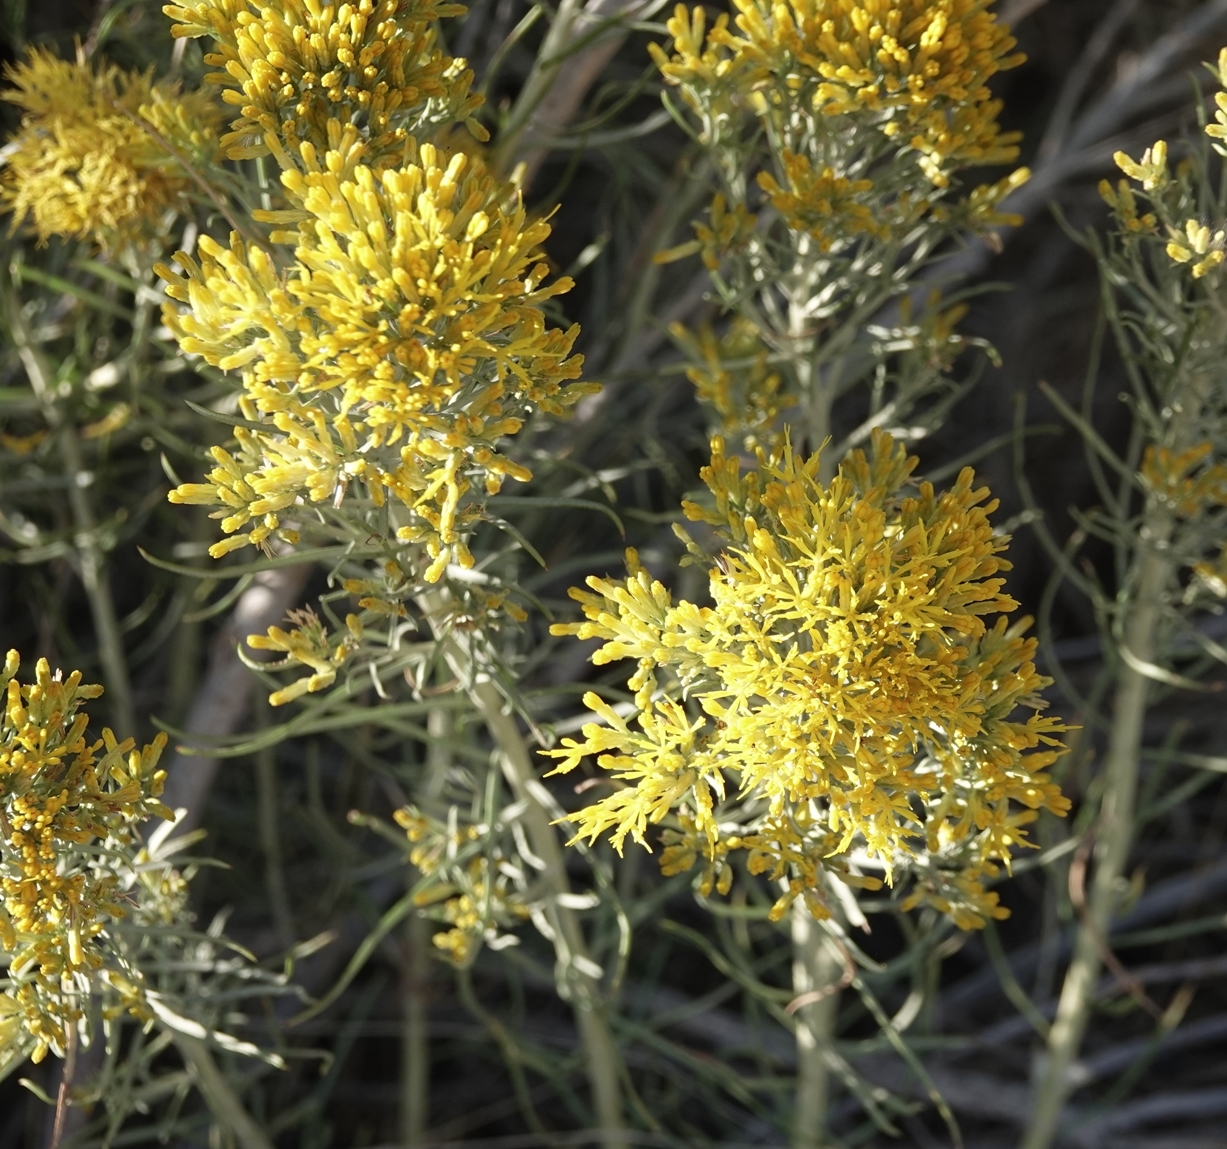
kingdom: Plantae
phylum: Tracheophyta
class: Magnoliopsida
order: Asterales
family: Asteraceae
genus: Ericameria
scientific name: Ericameria nauseosa
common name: Rubber rabbitbrush
